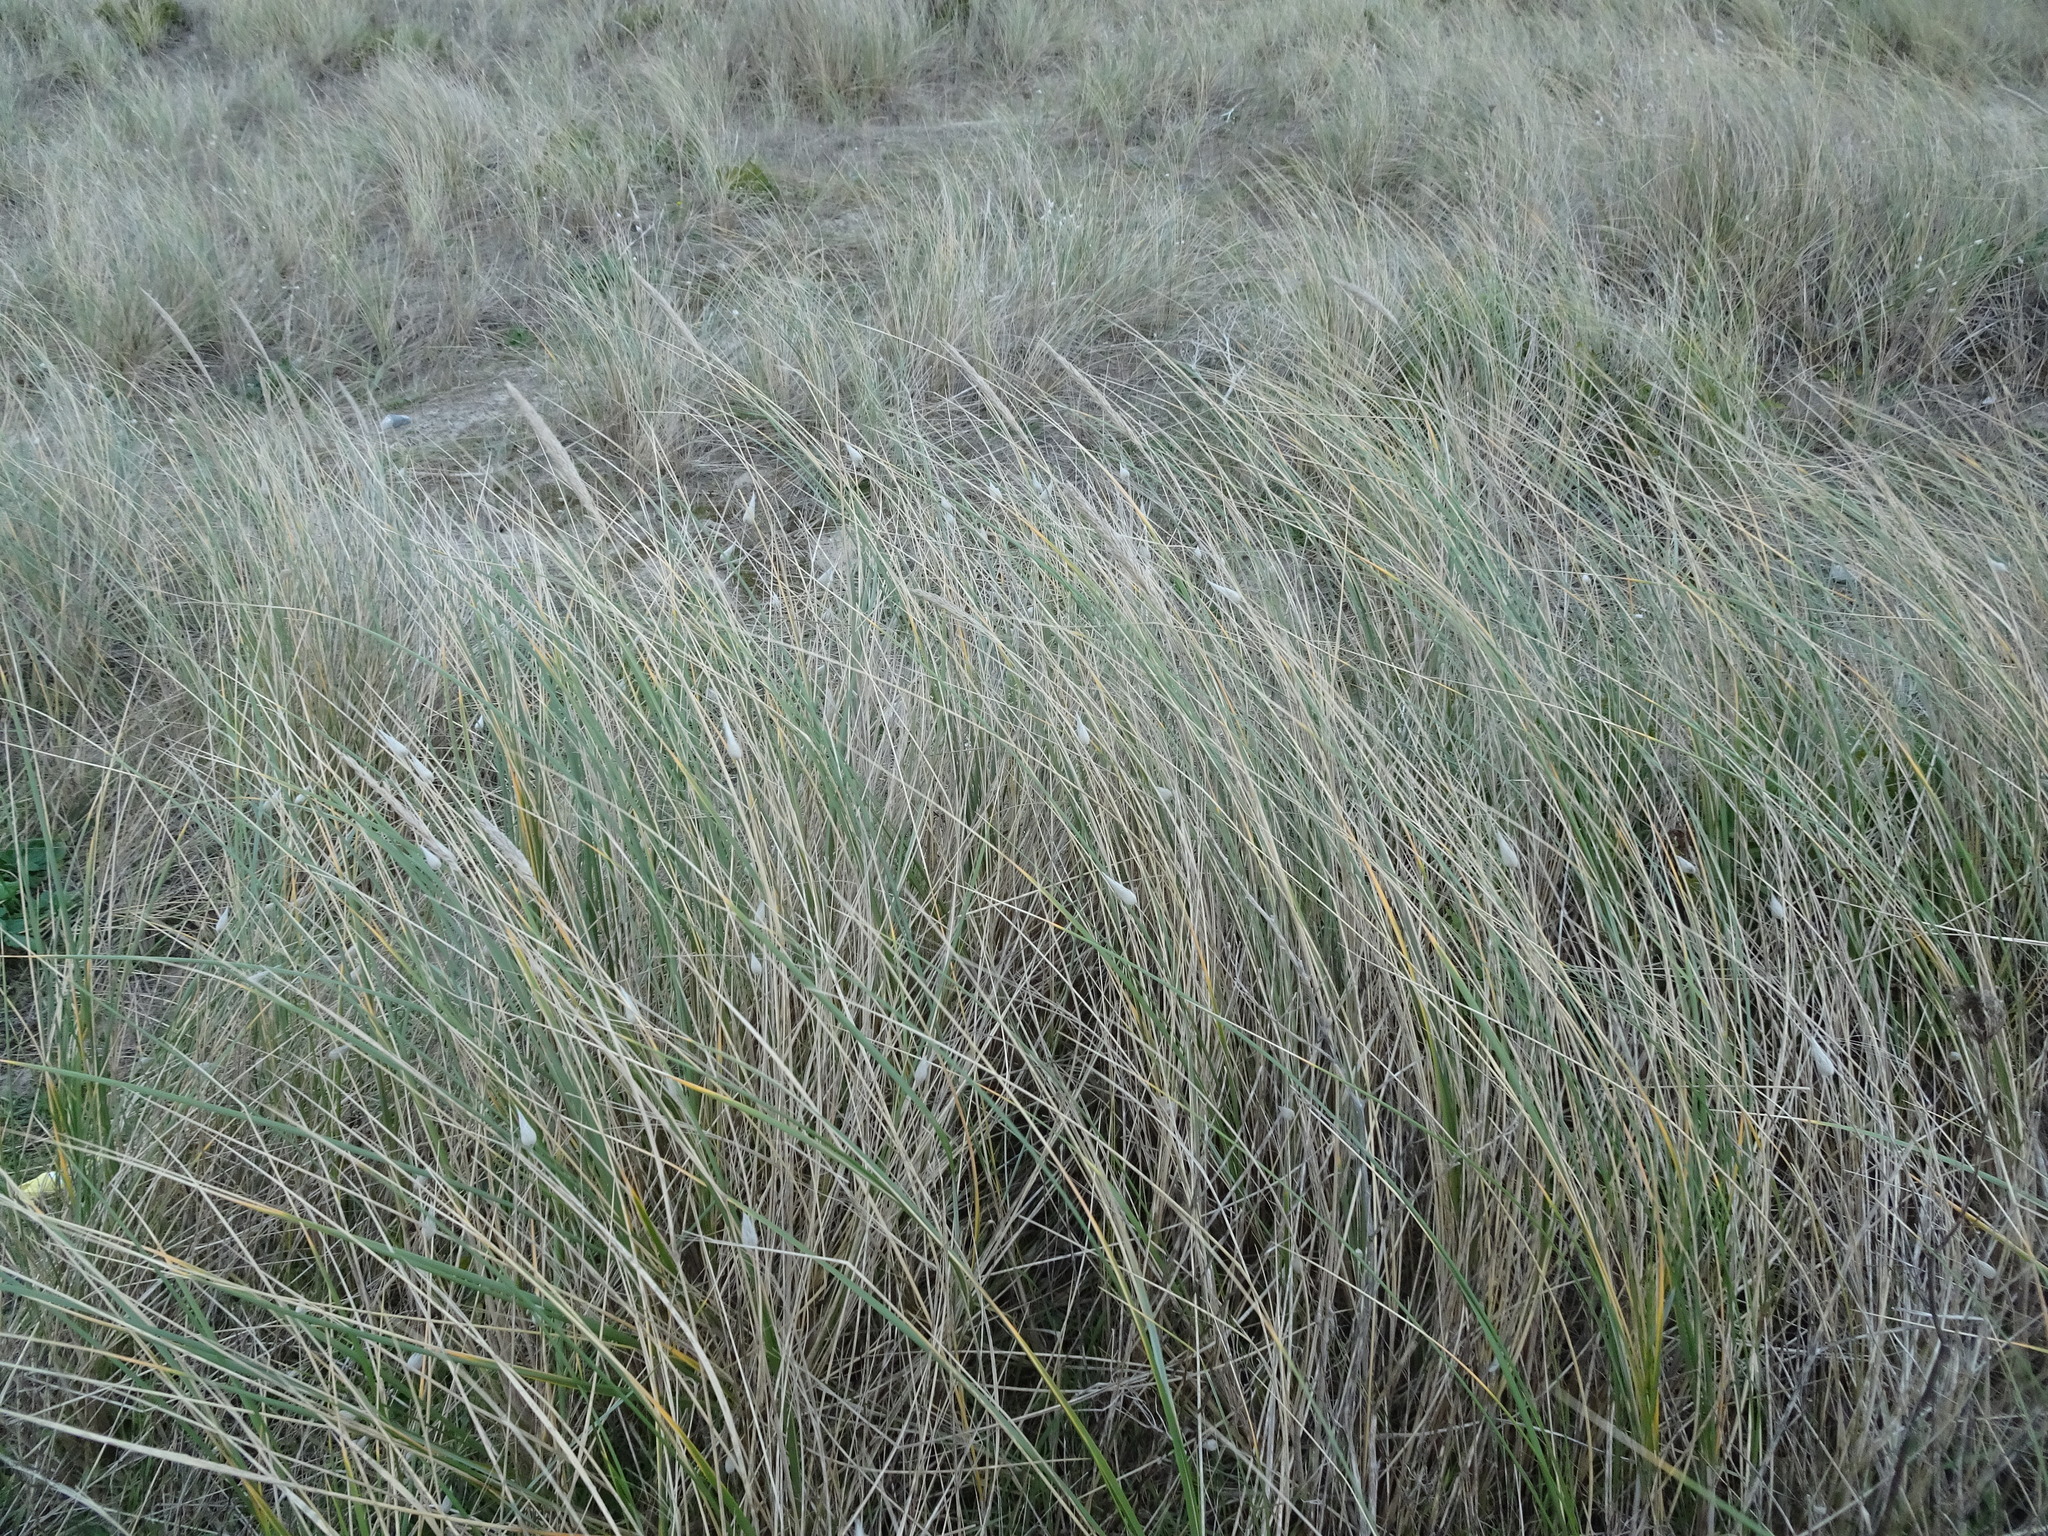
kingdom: Plantae
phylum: Tracheophyta
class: Liliopsida
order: Poales
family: Poaceae
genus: Calamagrostis
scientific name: Calamagrostis arenaria
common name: European beachgrass
